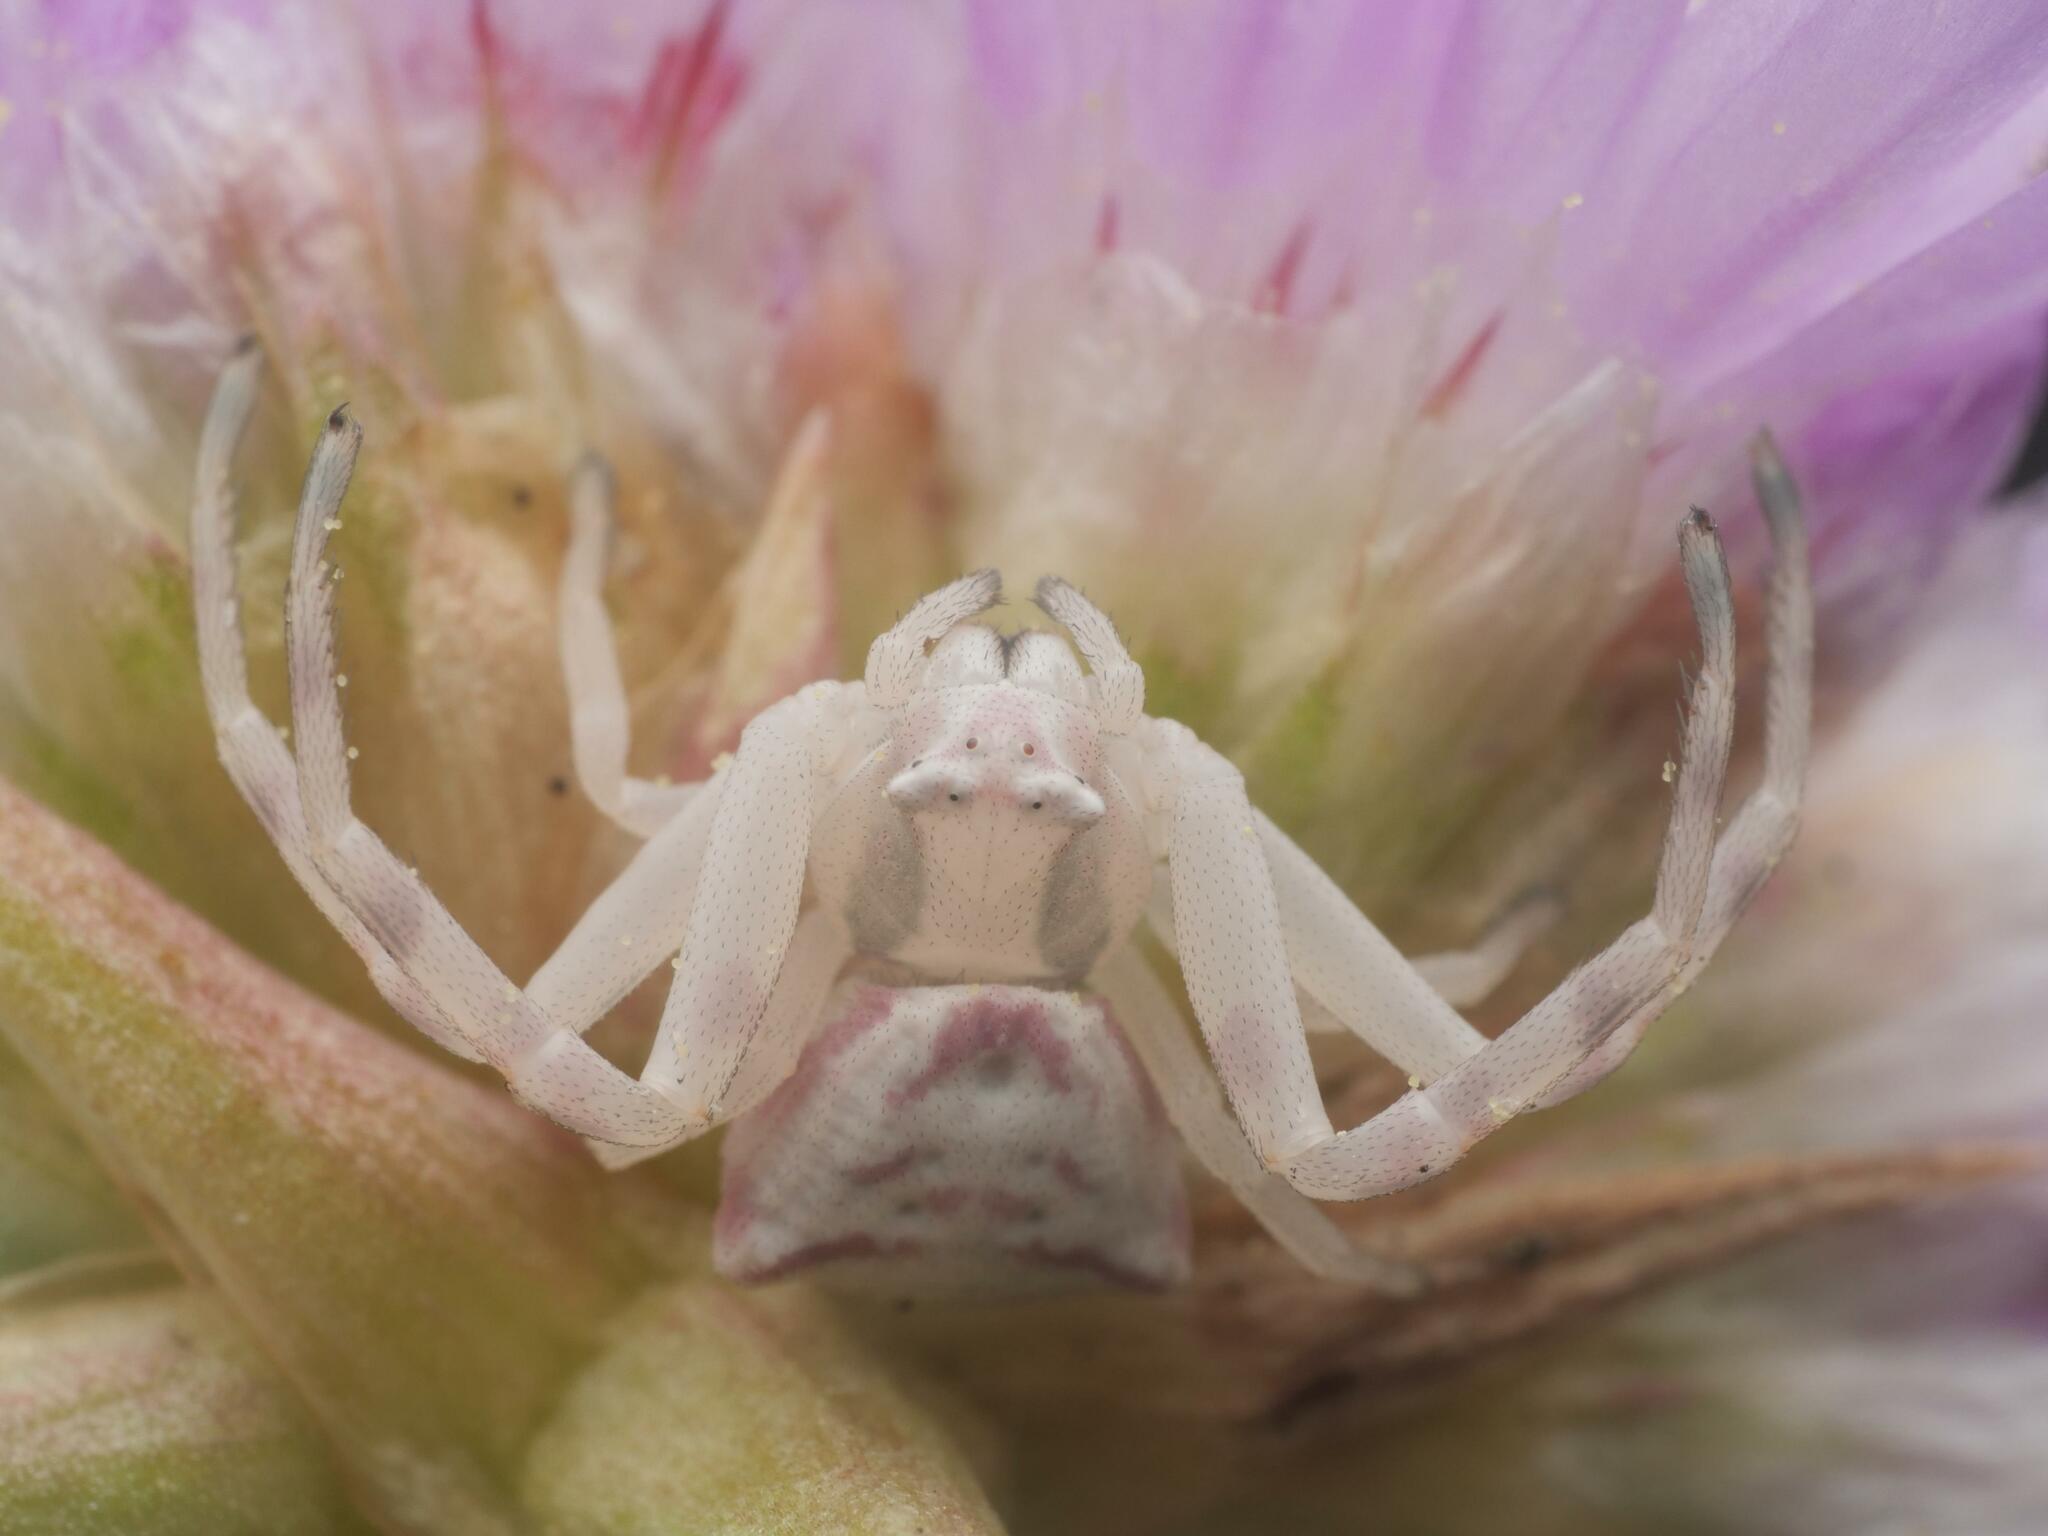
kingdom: Animalia
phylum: Arthropoda
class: Arachnida
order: Araneae
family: Thomisidae
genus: Thomisus
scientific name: Thomisus onustus
